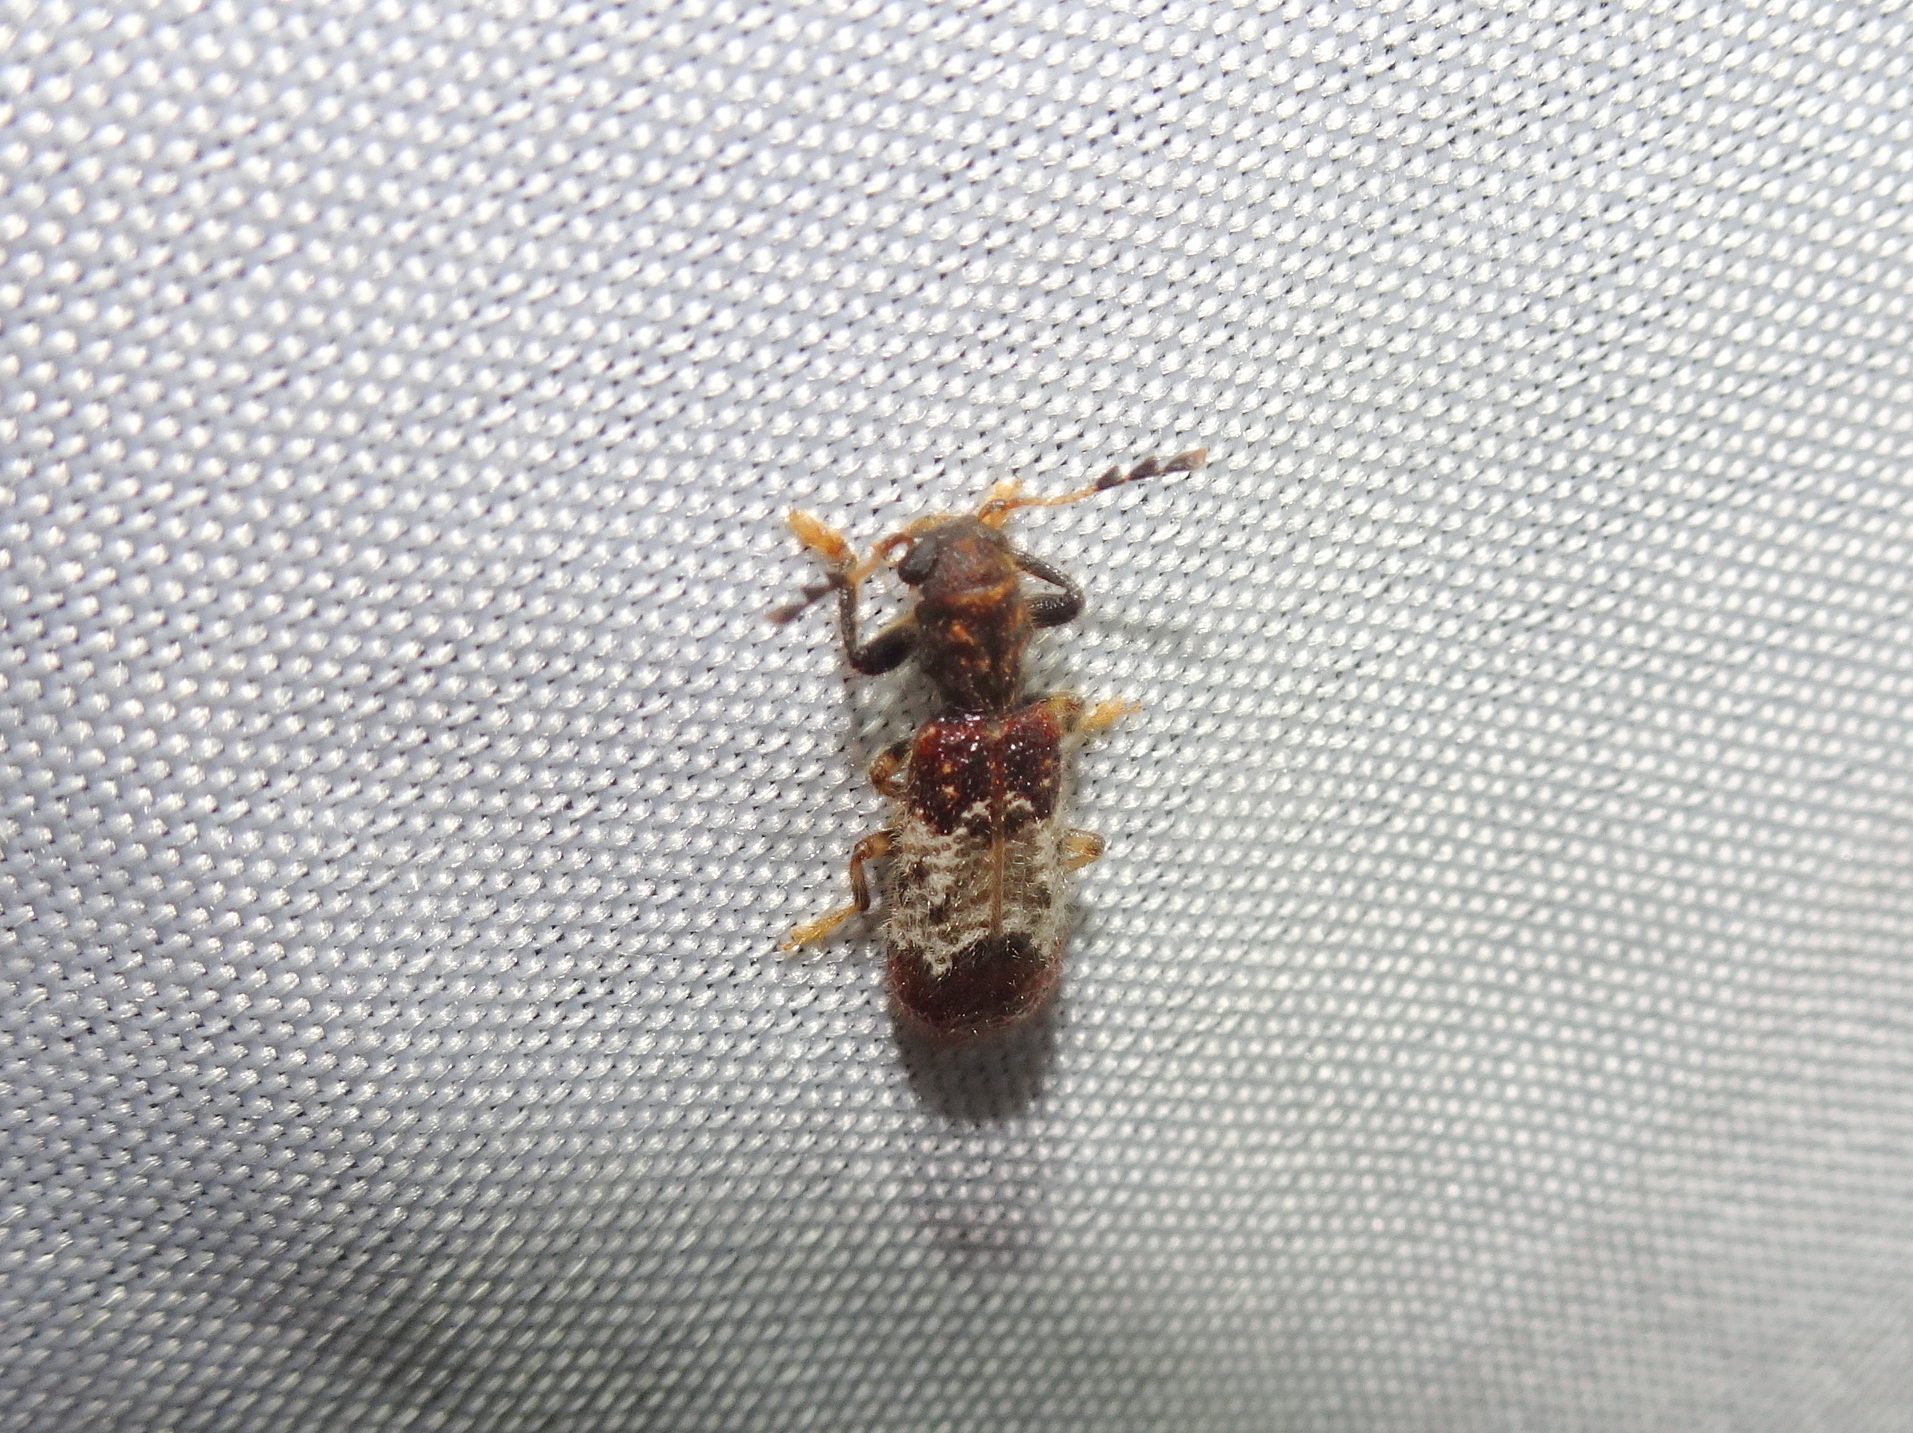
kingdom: Animalia
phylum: Arthropoda
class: Insecta
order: Coleoptera
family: Cleridae
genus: Pelonium
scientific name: Pelonium leucophaeum
